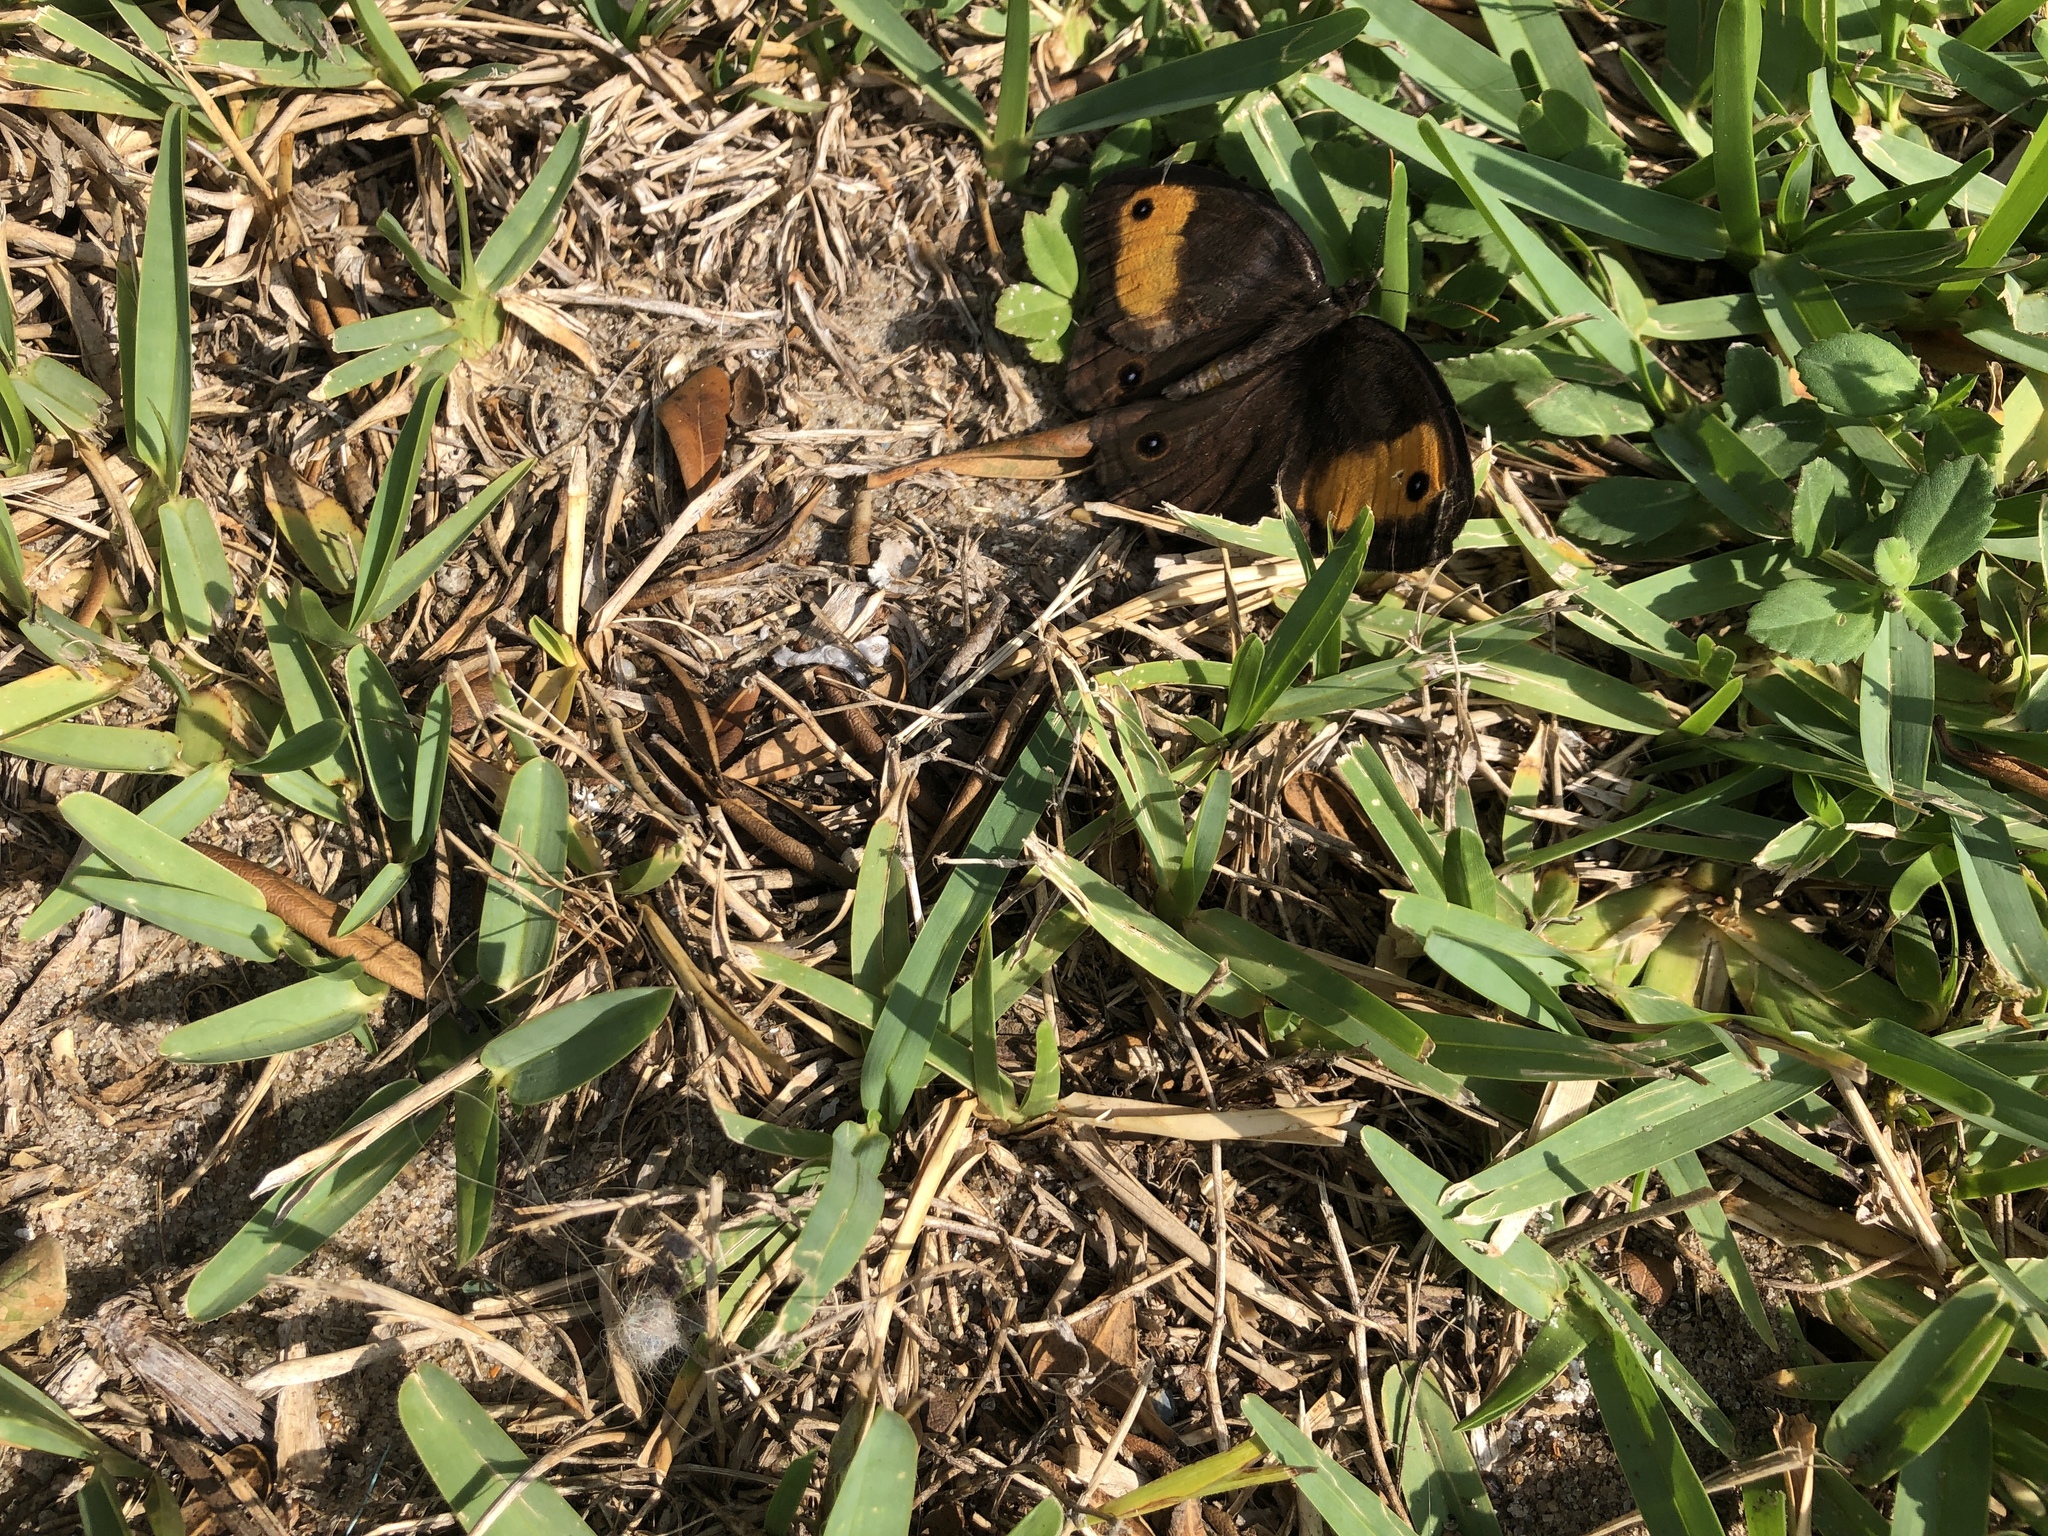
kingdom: Animalia
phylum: Arthropoda
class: Insecta
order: Lepidoptera
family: Nymphalidae
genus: Cercyonis
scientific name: Cercyonis pegala
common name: Common wood-nymph
